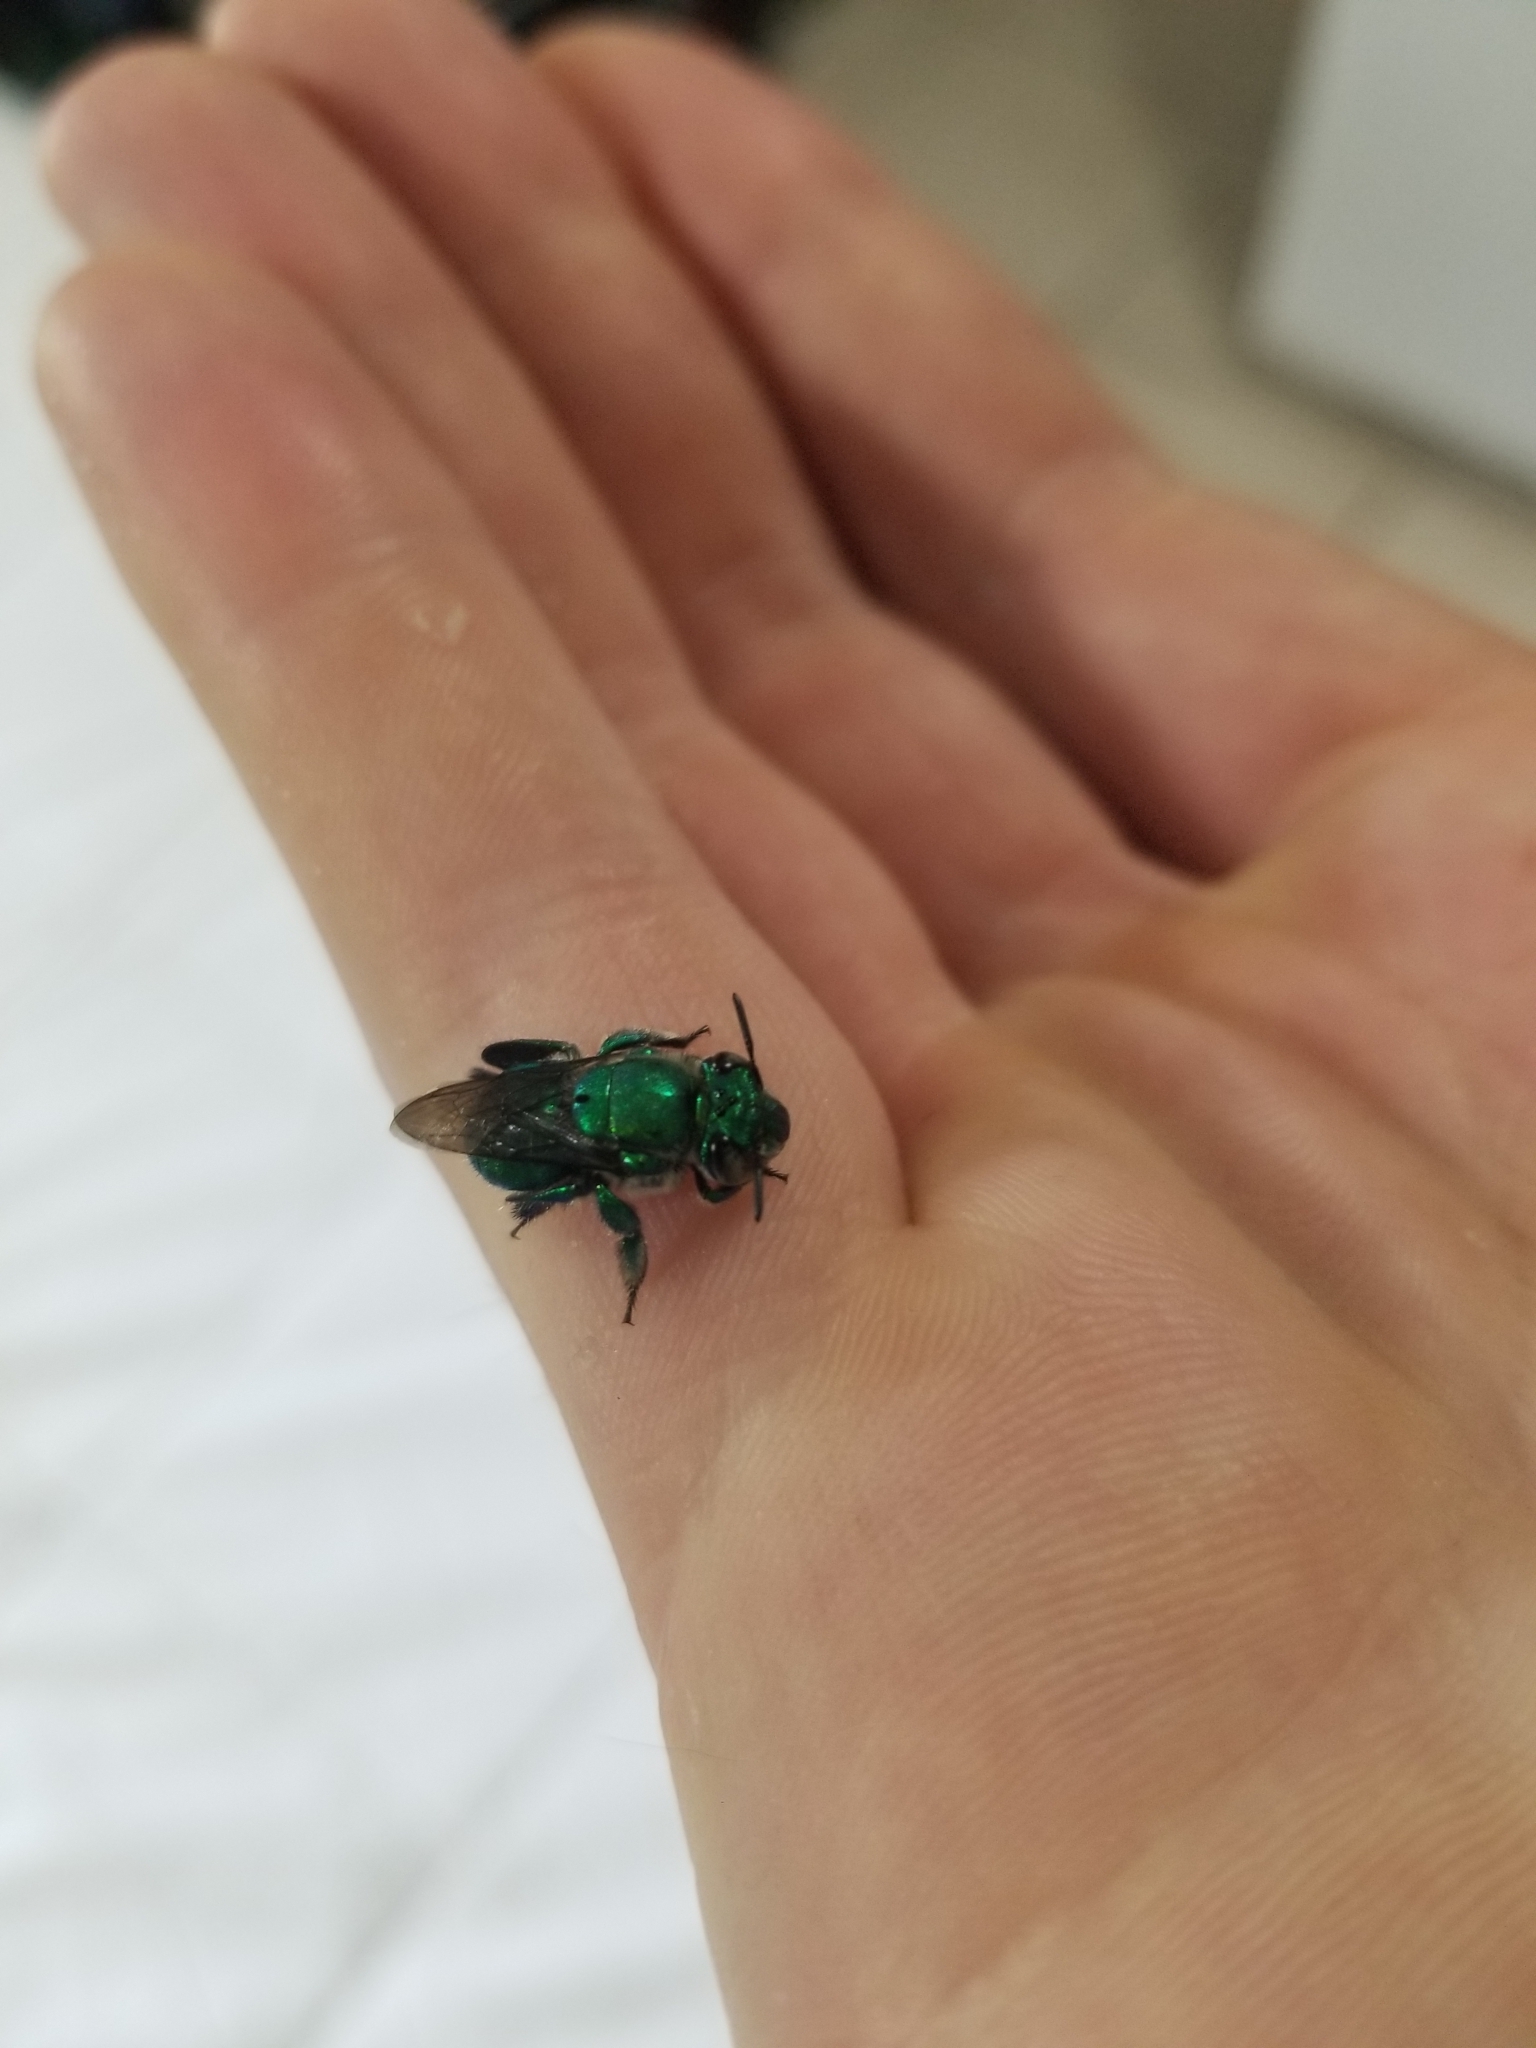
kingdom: Animalia
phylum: Arthropoda
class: Insecta
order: Hymenoptera
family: Apidae
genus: Euglossa
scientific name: Euglossa dilemma
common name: Green orchid bee
